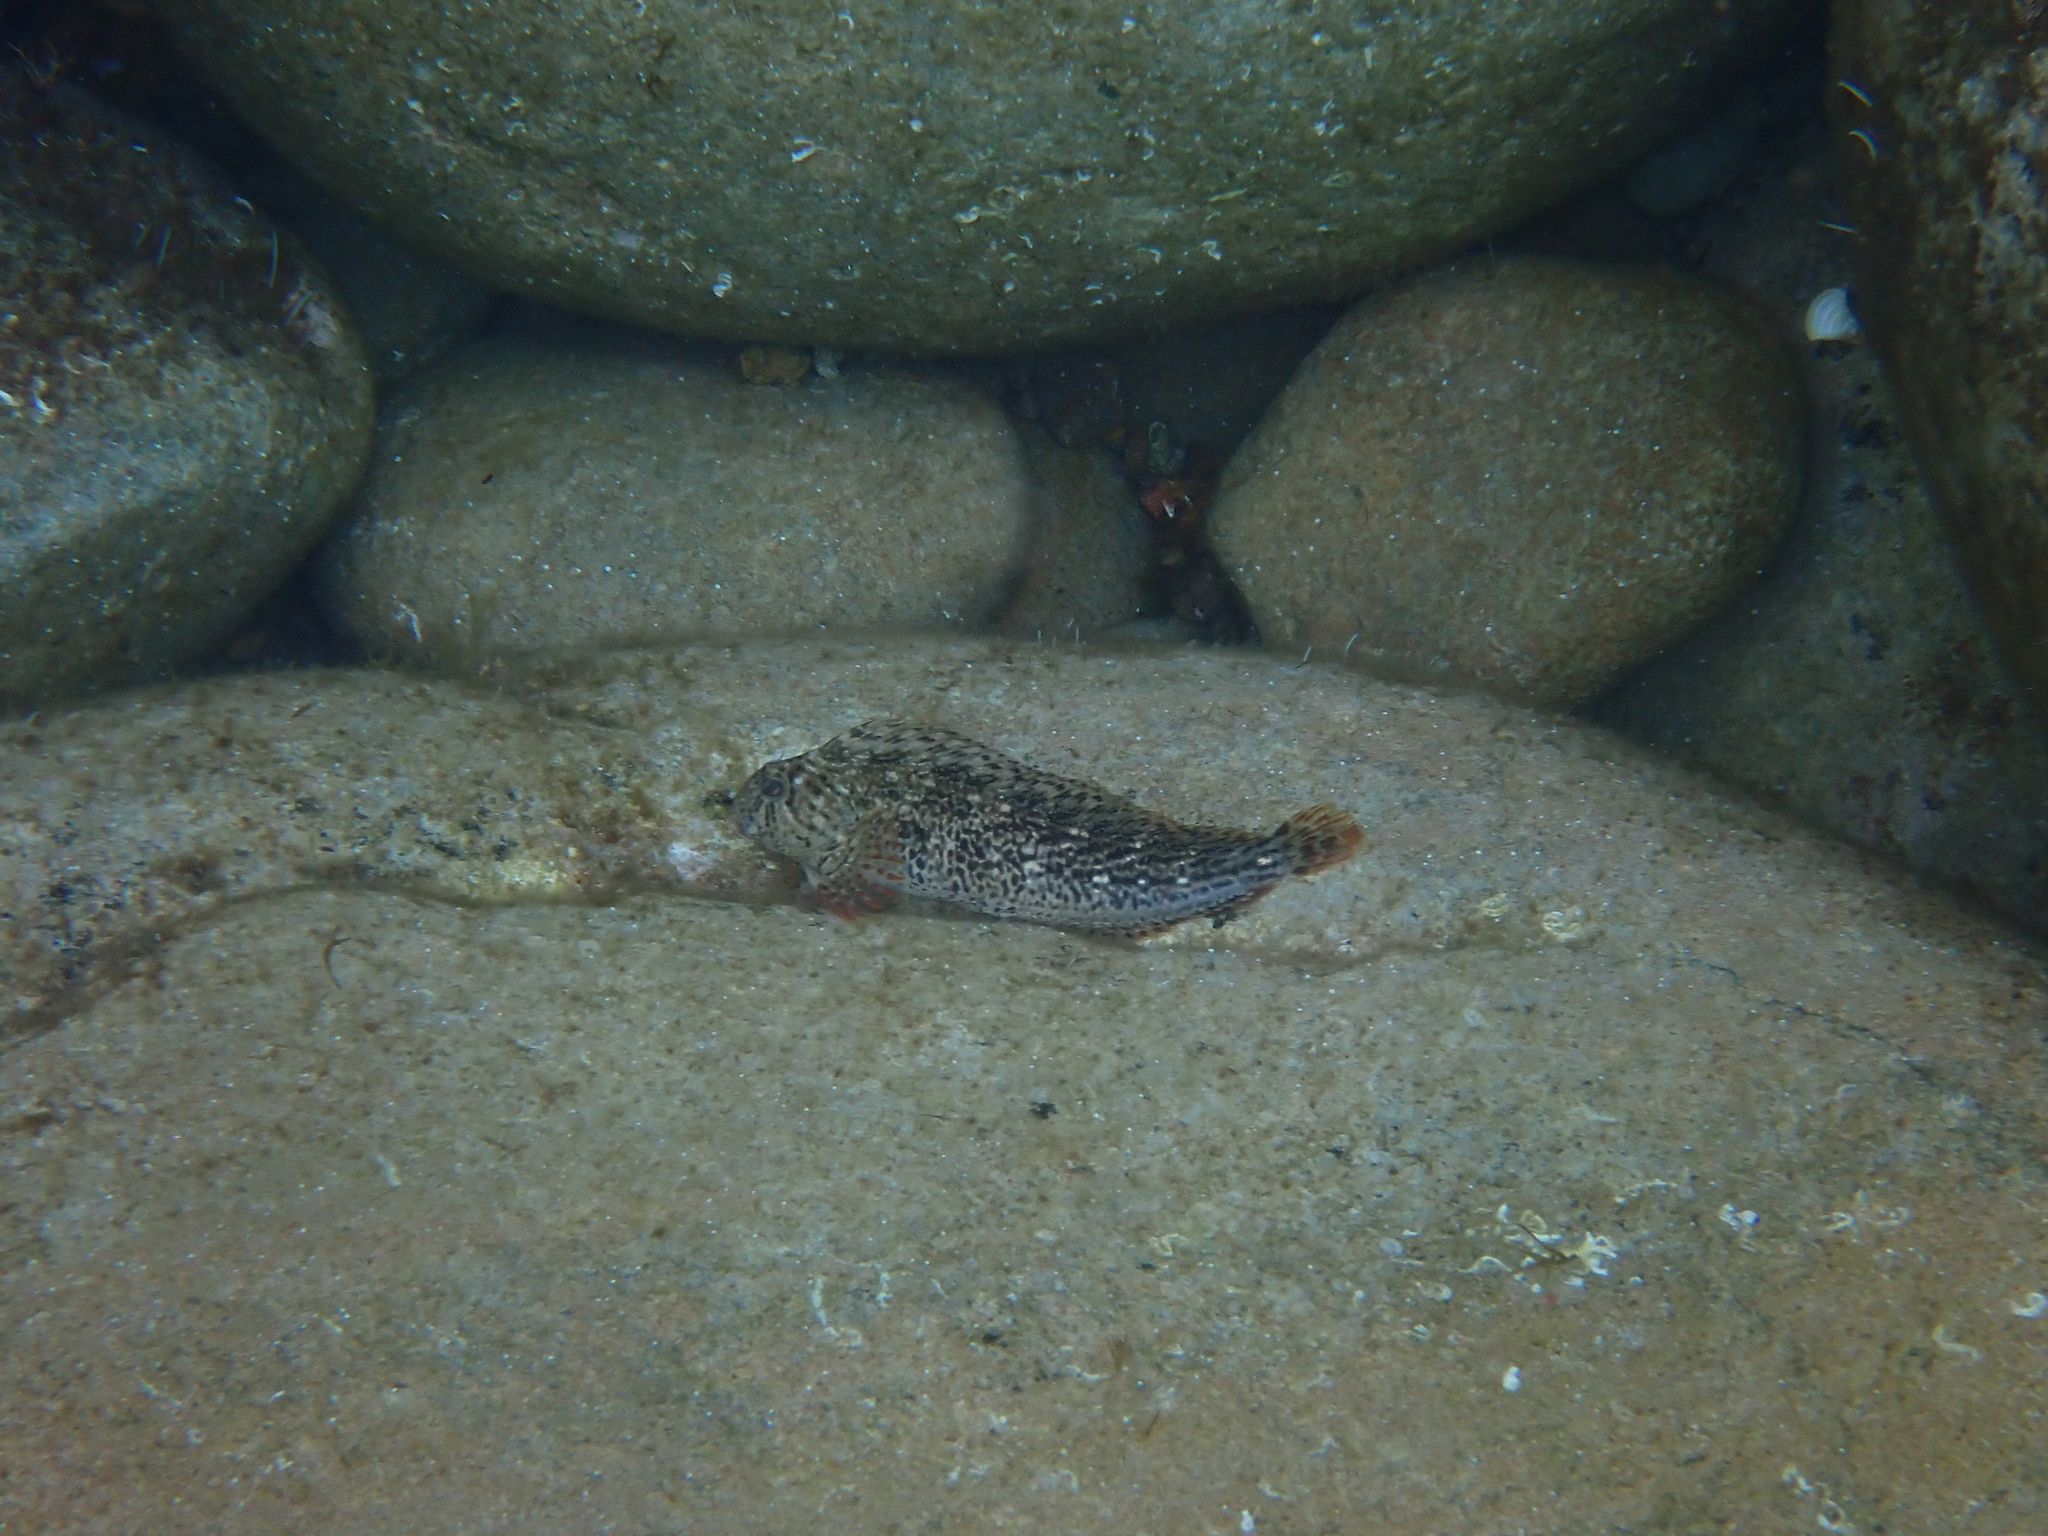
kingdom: Animalia
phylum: Chordata
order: Perciformes
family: Blenniidae
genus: Parablennius
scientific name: Parablennius sanguinolentus
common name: Black sea blenny
